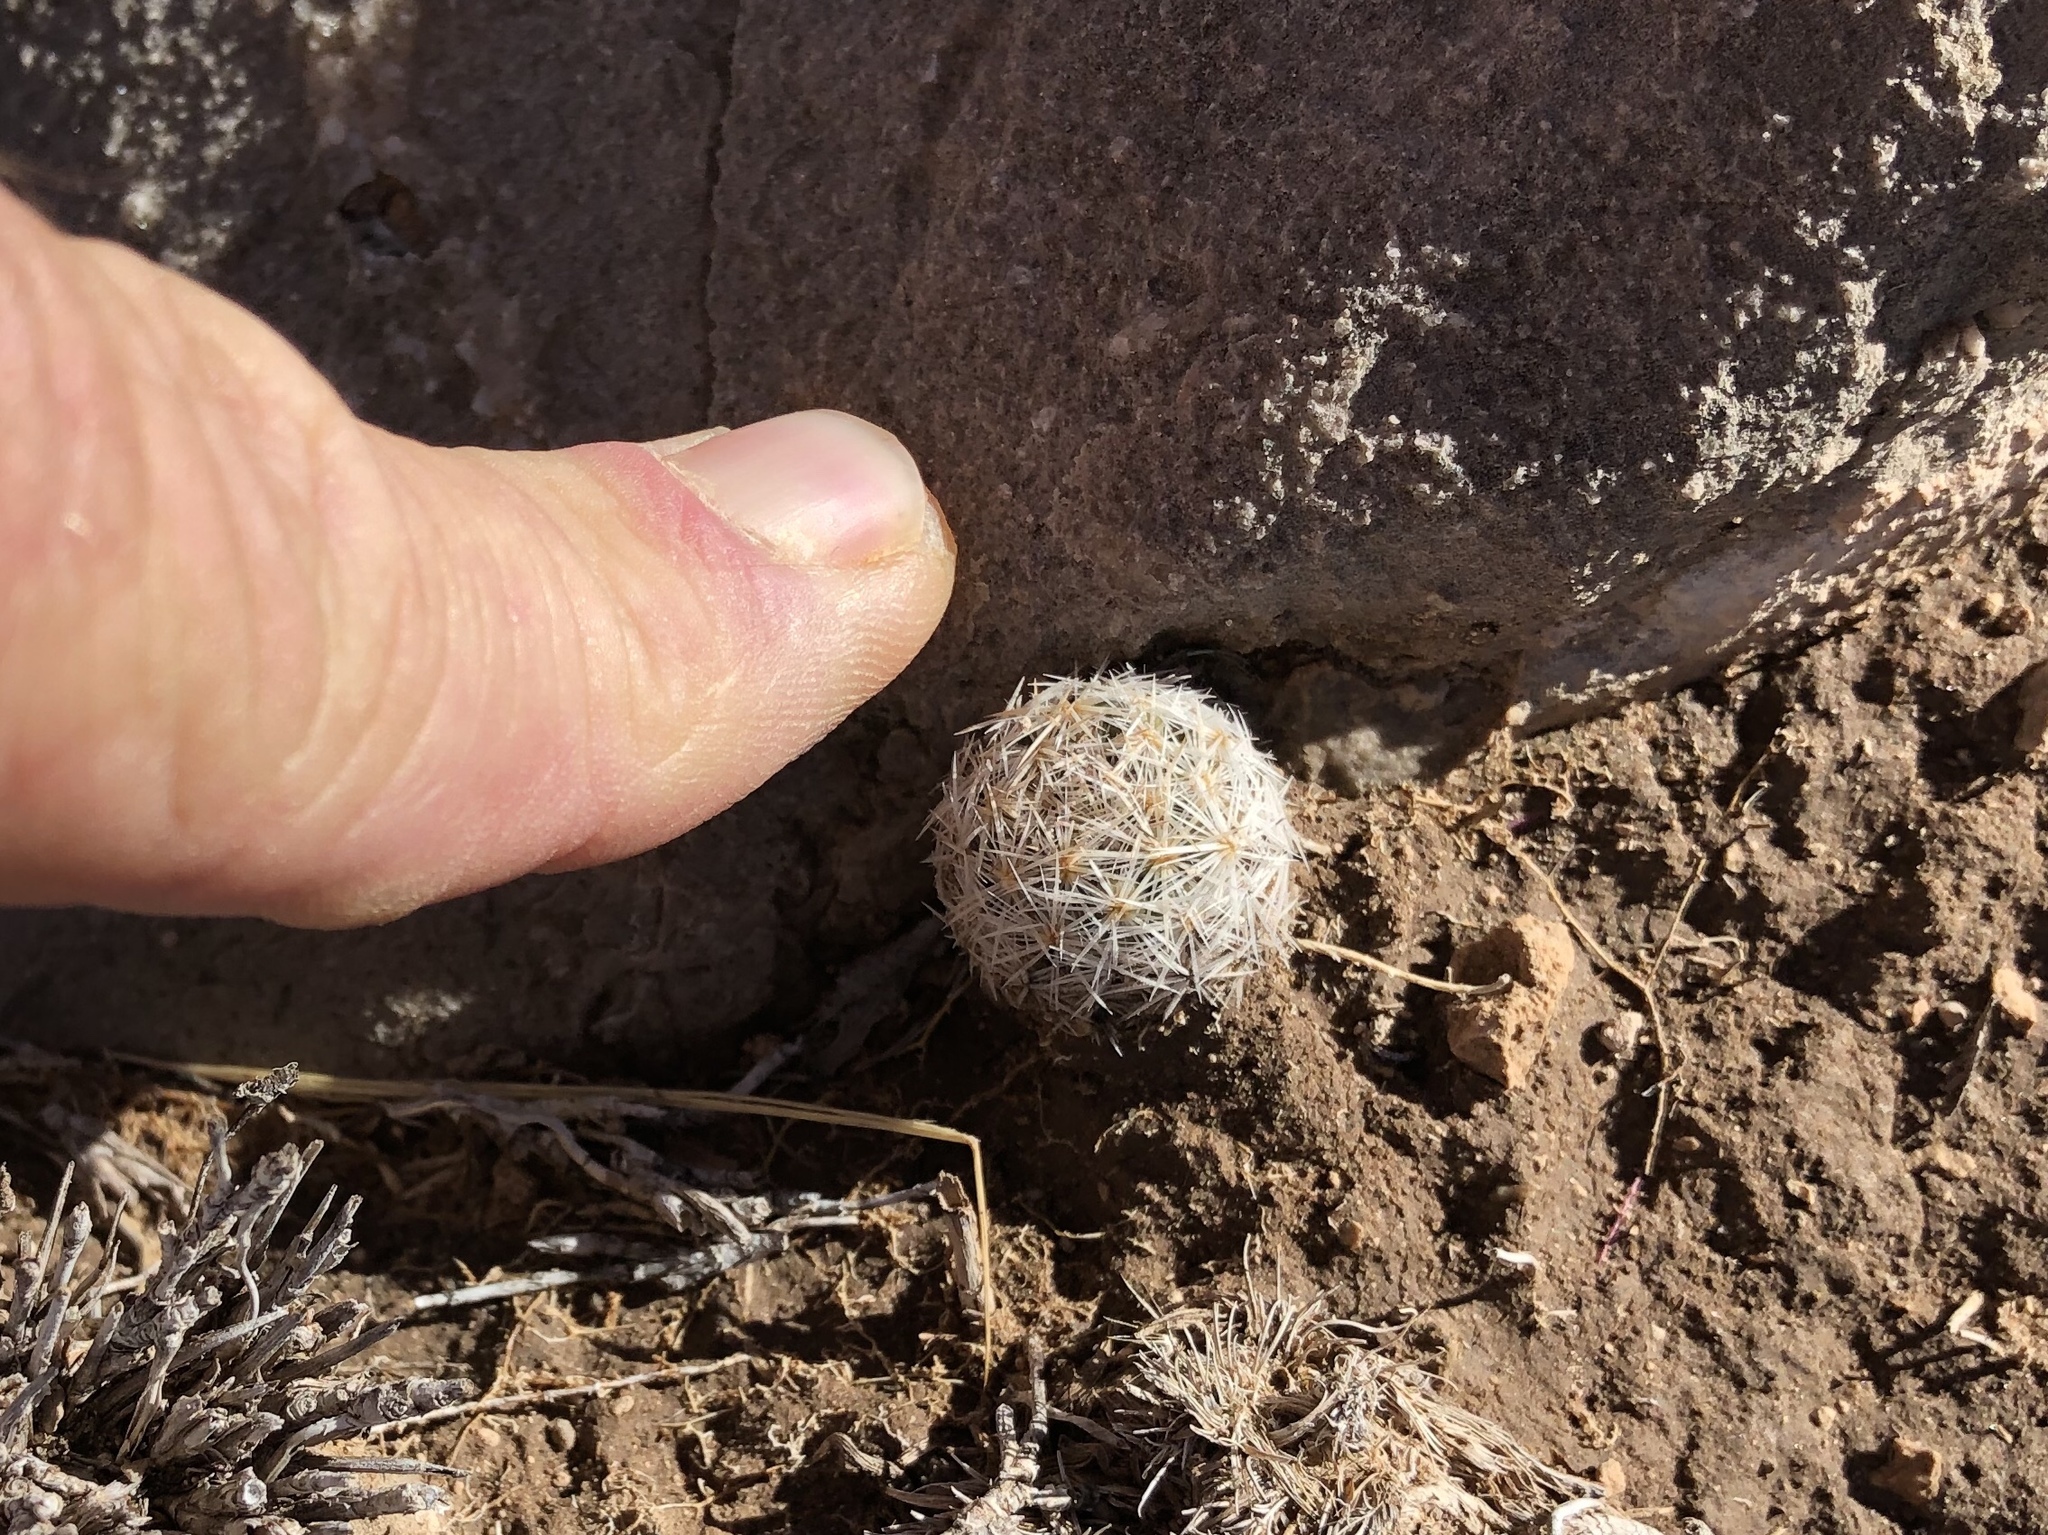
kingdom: Plantae
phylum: Tracheophyta
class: Magnoliopsida
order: Caryophyllales
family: Cactaceae
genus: Pelecyphora
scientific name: Pelecyphora vivipara
